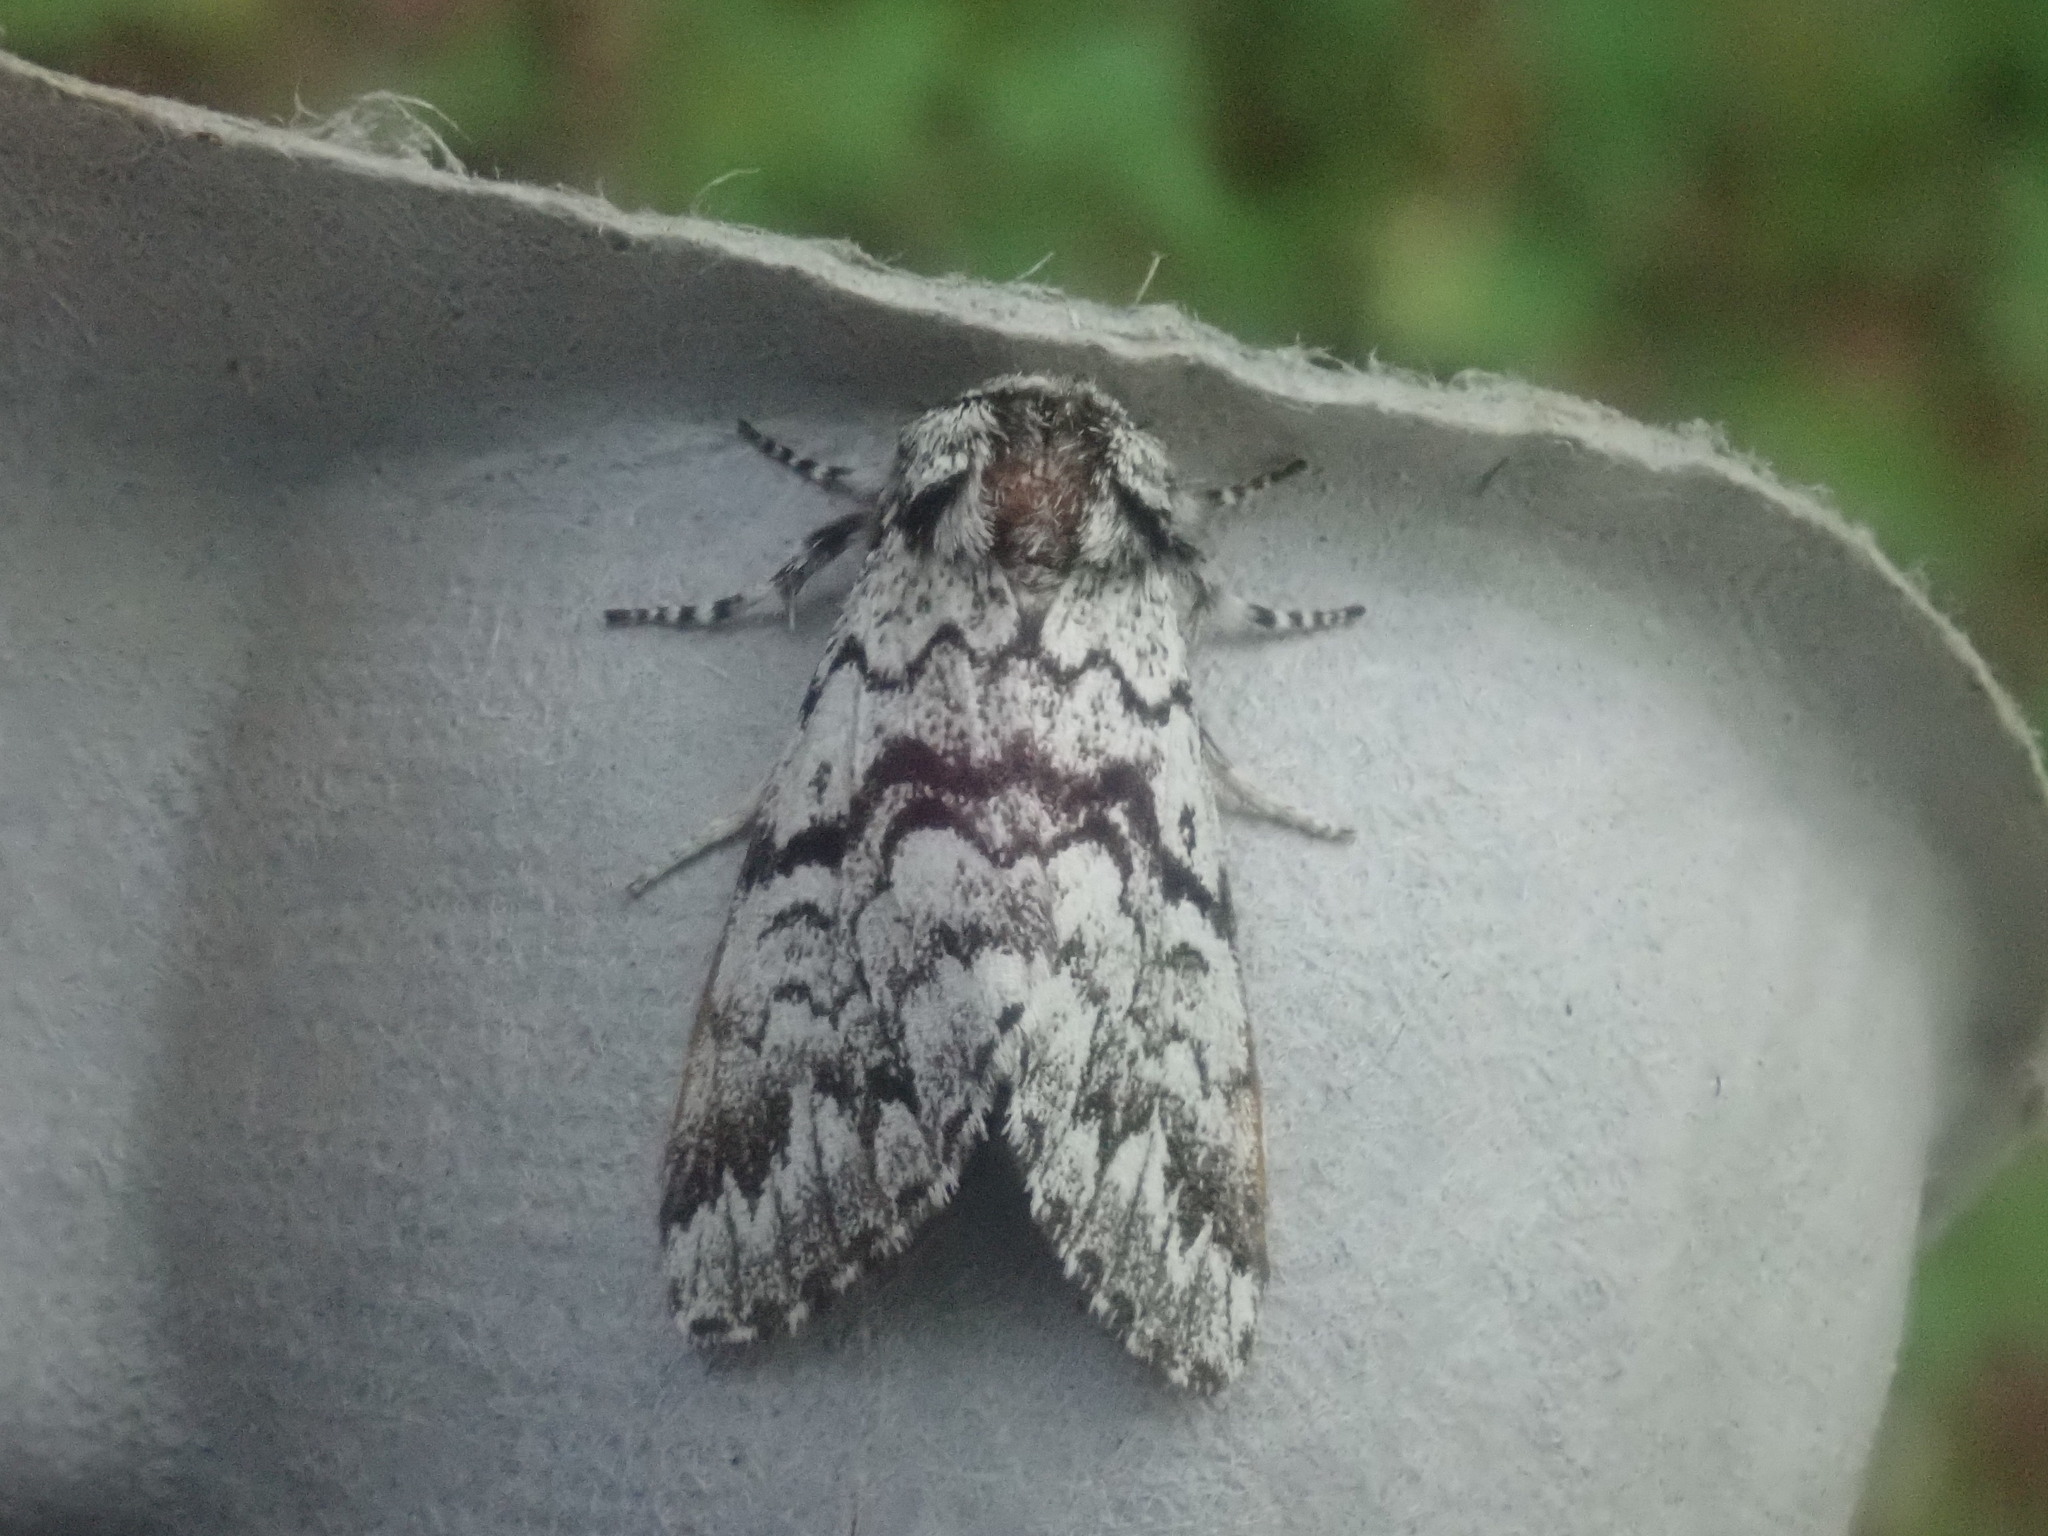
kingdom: Animalia
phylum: Arthropoda
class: Insecta
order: Lepidoptera
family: Noctuidae
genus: Panthea
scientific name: Panthea acronyctoides
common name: Black zigzag moth
